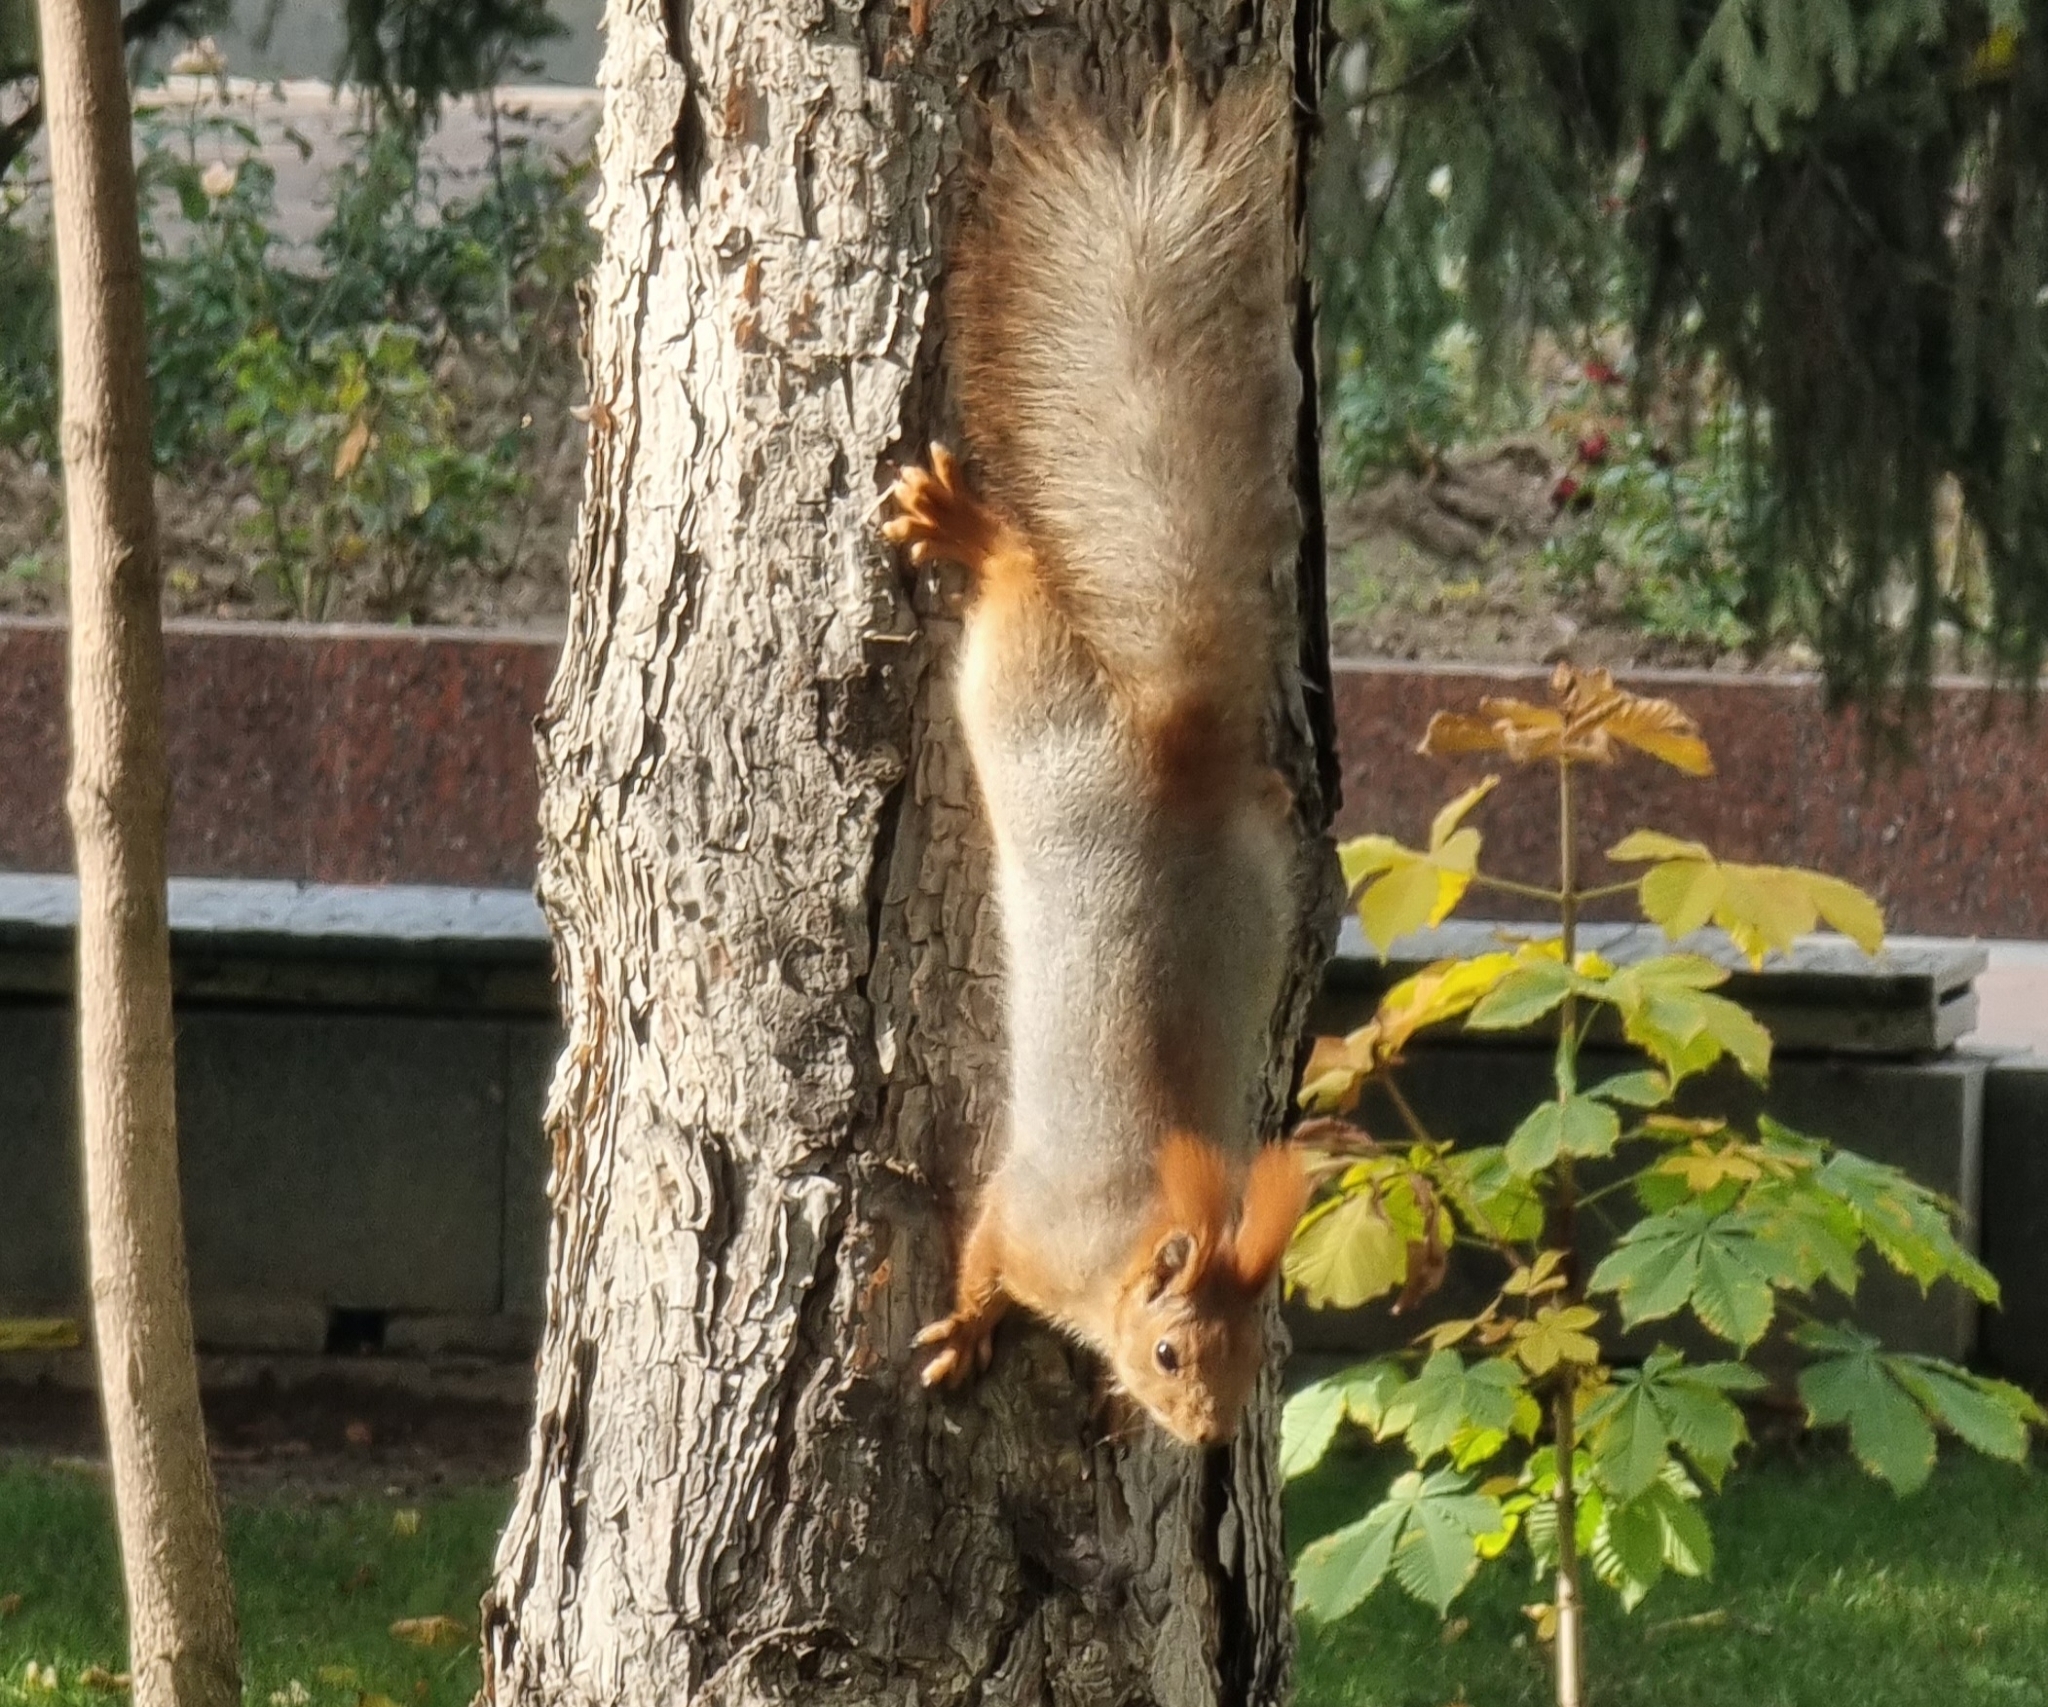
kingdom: Animalia
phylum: Chordata
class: Mammalia
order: Rodentia
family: Sciuridae
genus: Sciurus
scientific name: Sciurus vulgaris
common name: Eurasian red squirrel
